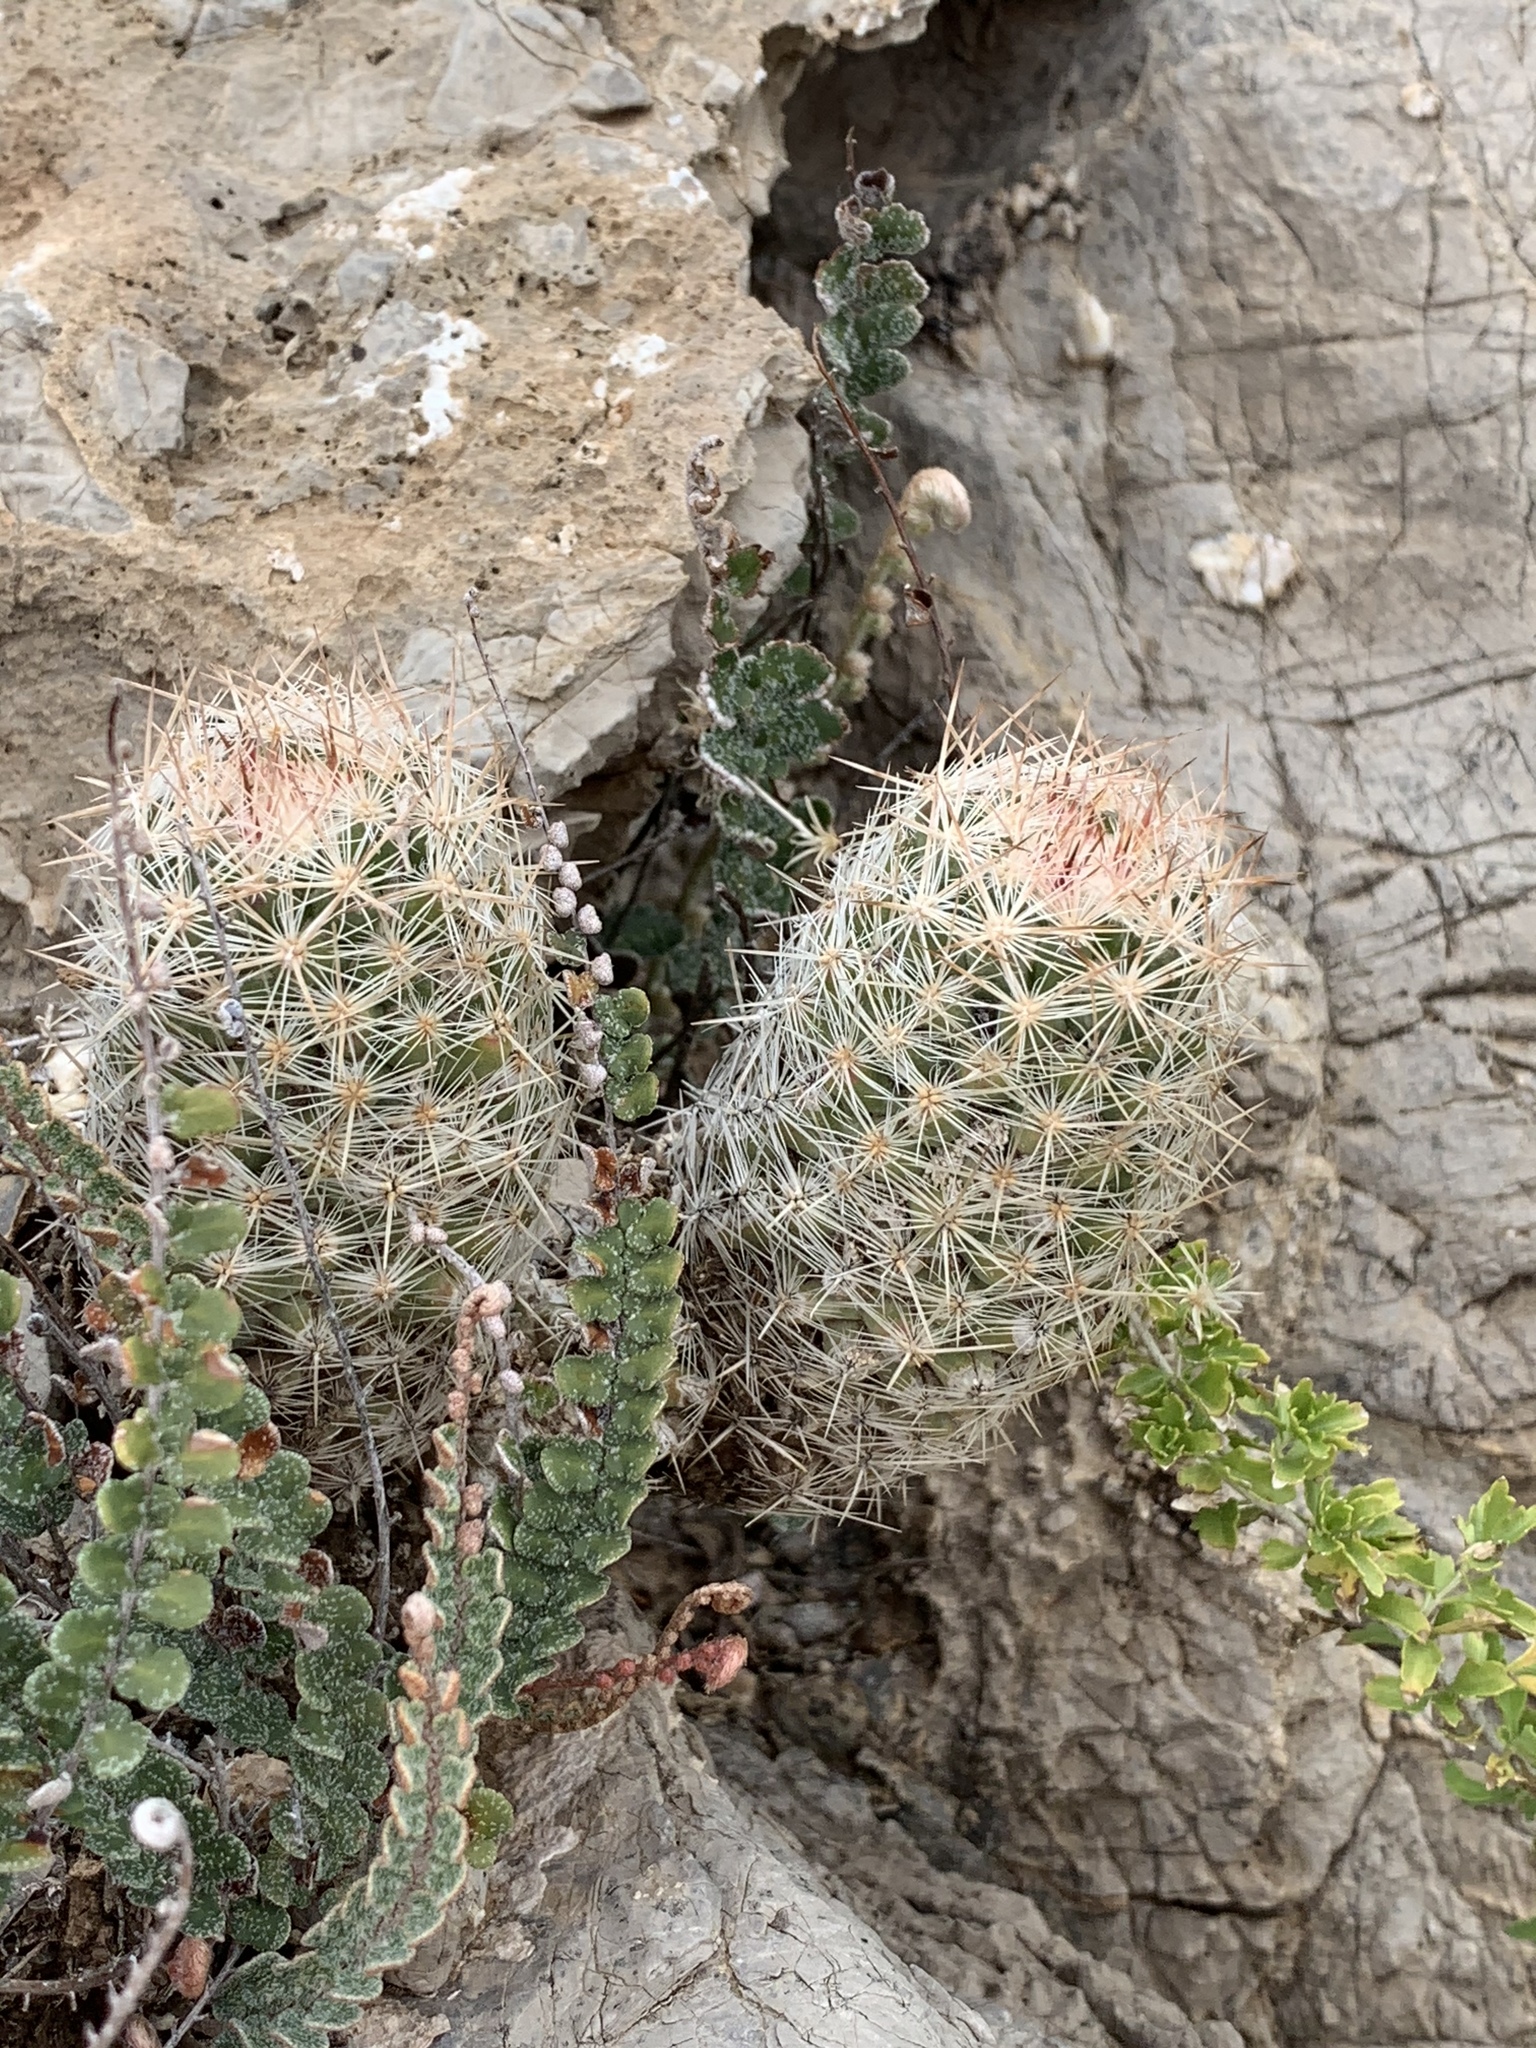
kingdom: Plantae
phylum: Tracheophyta
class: Magnoliopsida
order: Caryophyllales
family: Cactaceae
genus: Pelecyphora
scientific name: Pelecyphora tuberculosa
